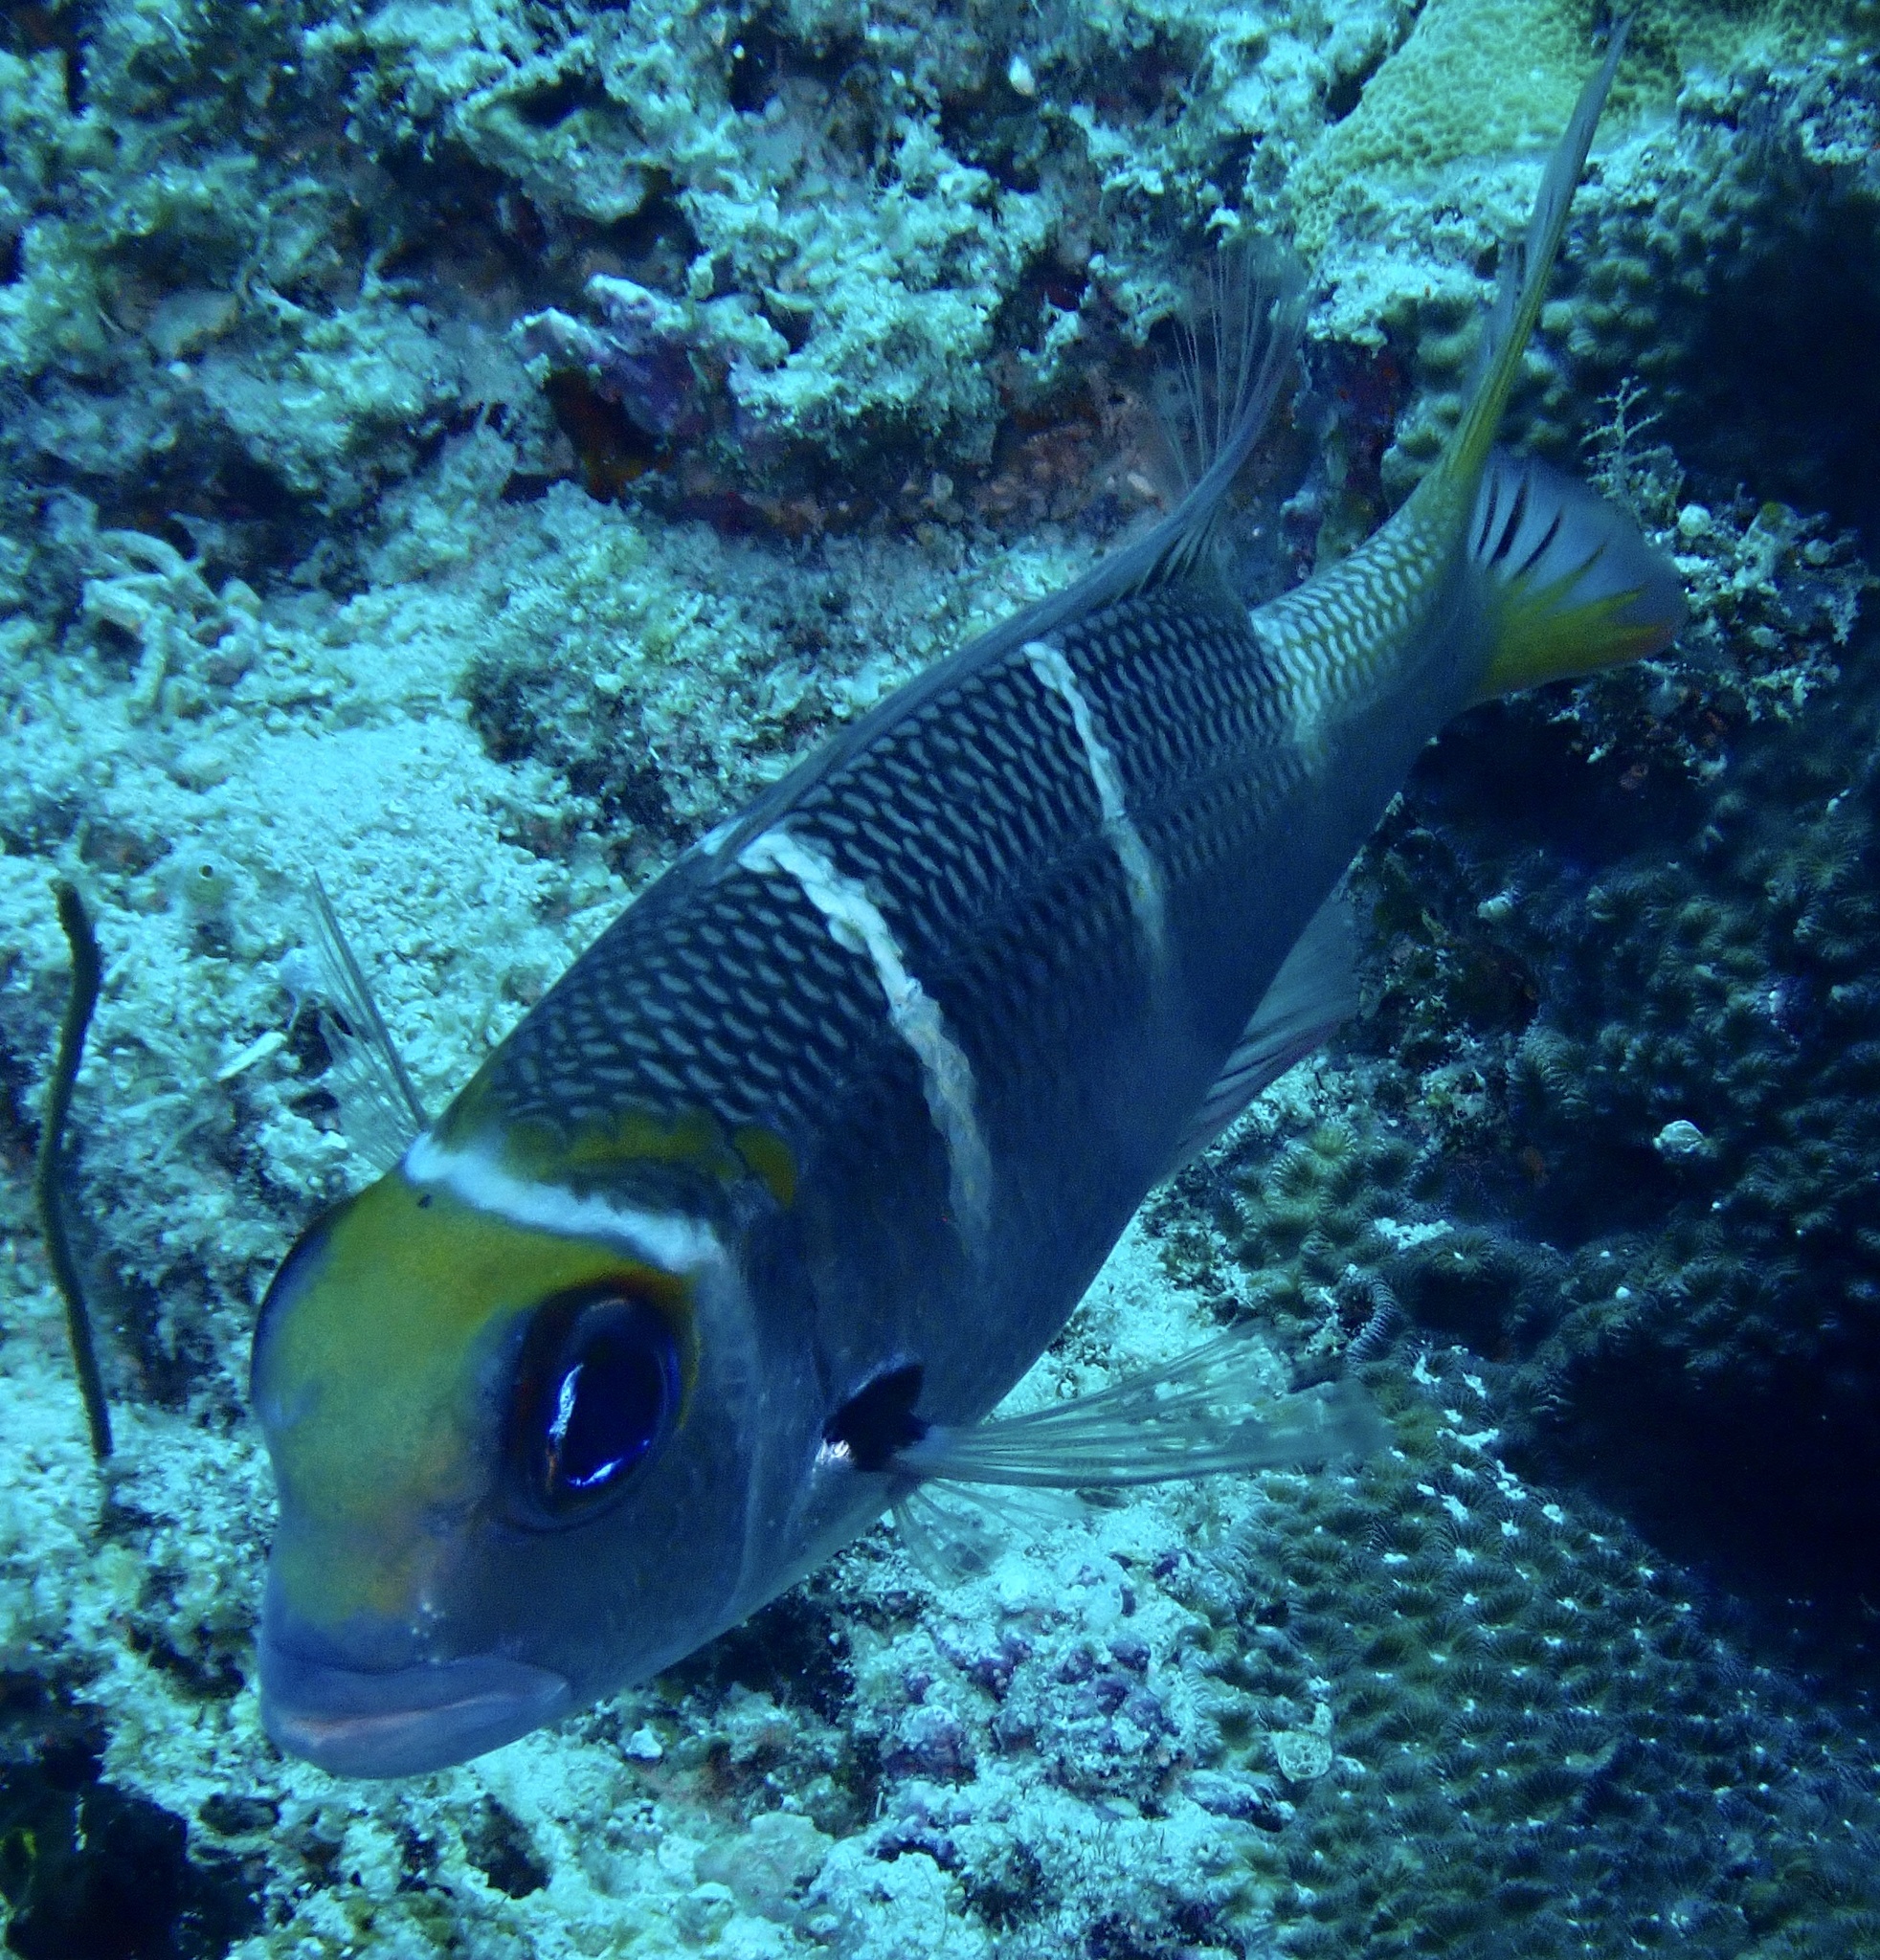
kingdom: Animalia
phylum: Chordata
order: Perciformes
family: Lethrinidae
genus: Monotaxis
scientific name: Monotaxis heterodon
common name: Redfin emperor
